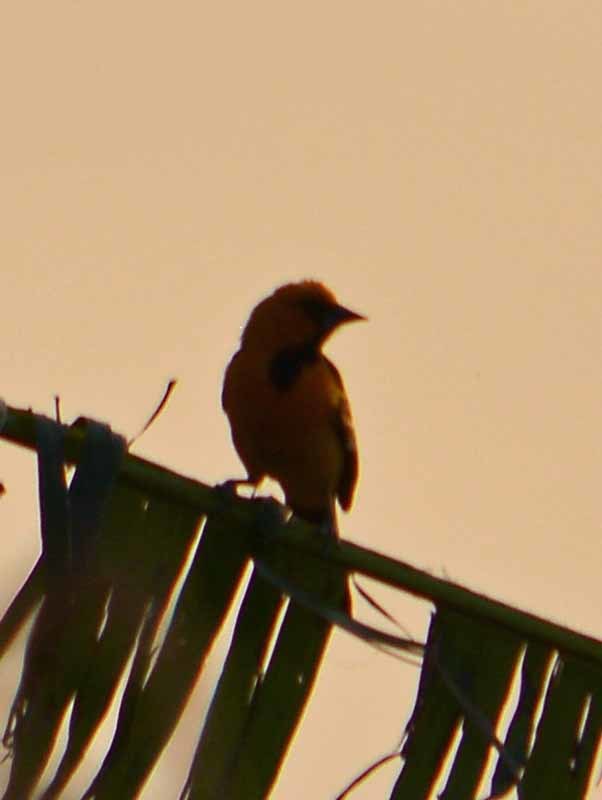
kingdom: Animalia
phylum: Chordata
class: Aves
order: Passeriformes
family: Icteridae
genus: Icterus
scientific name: Icterus gularis
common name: Altamira oriole
